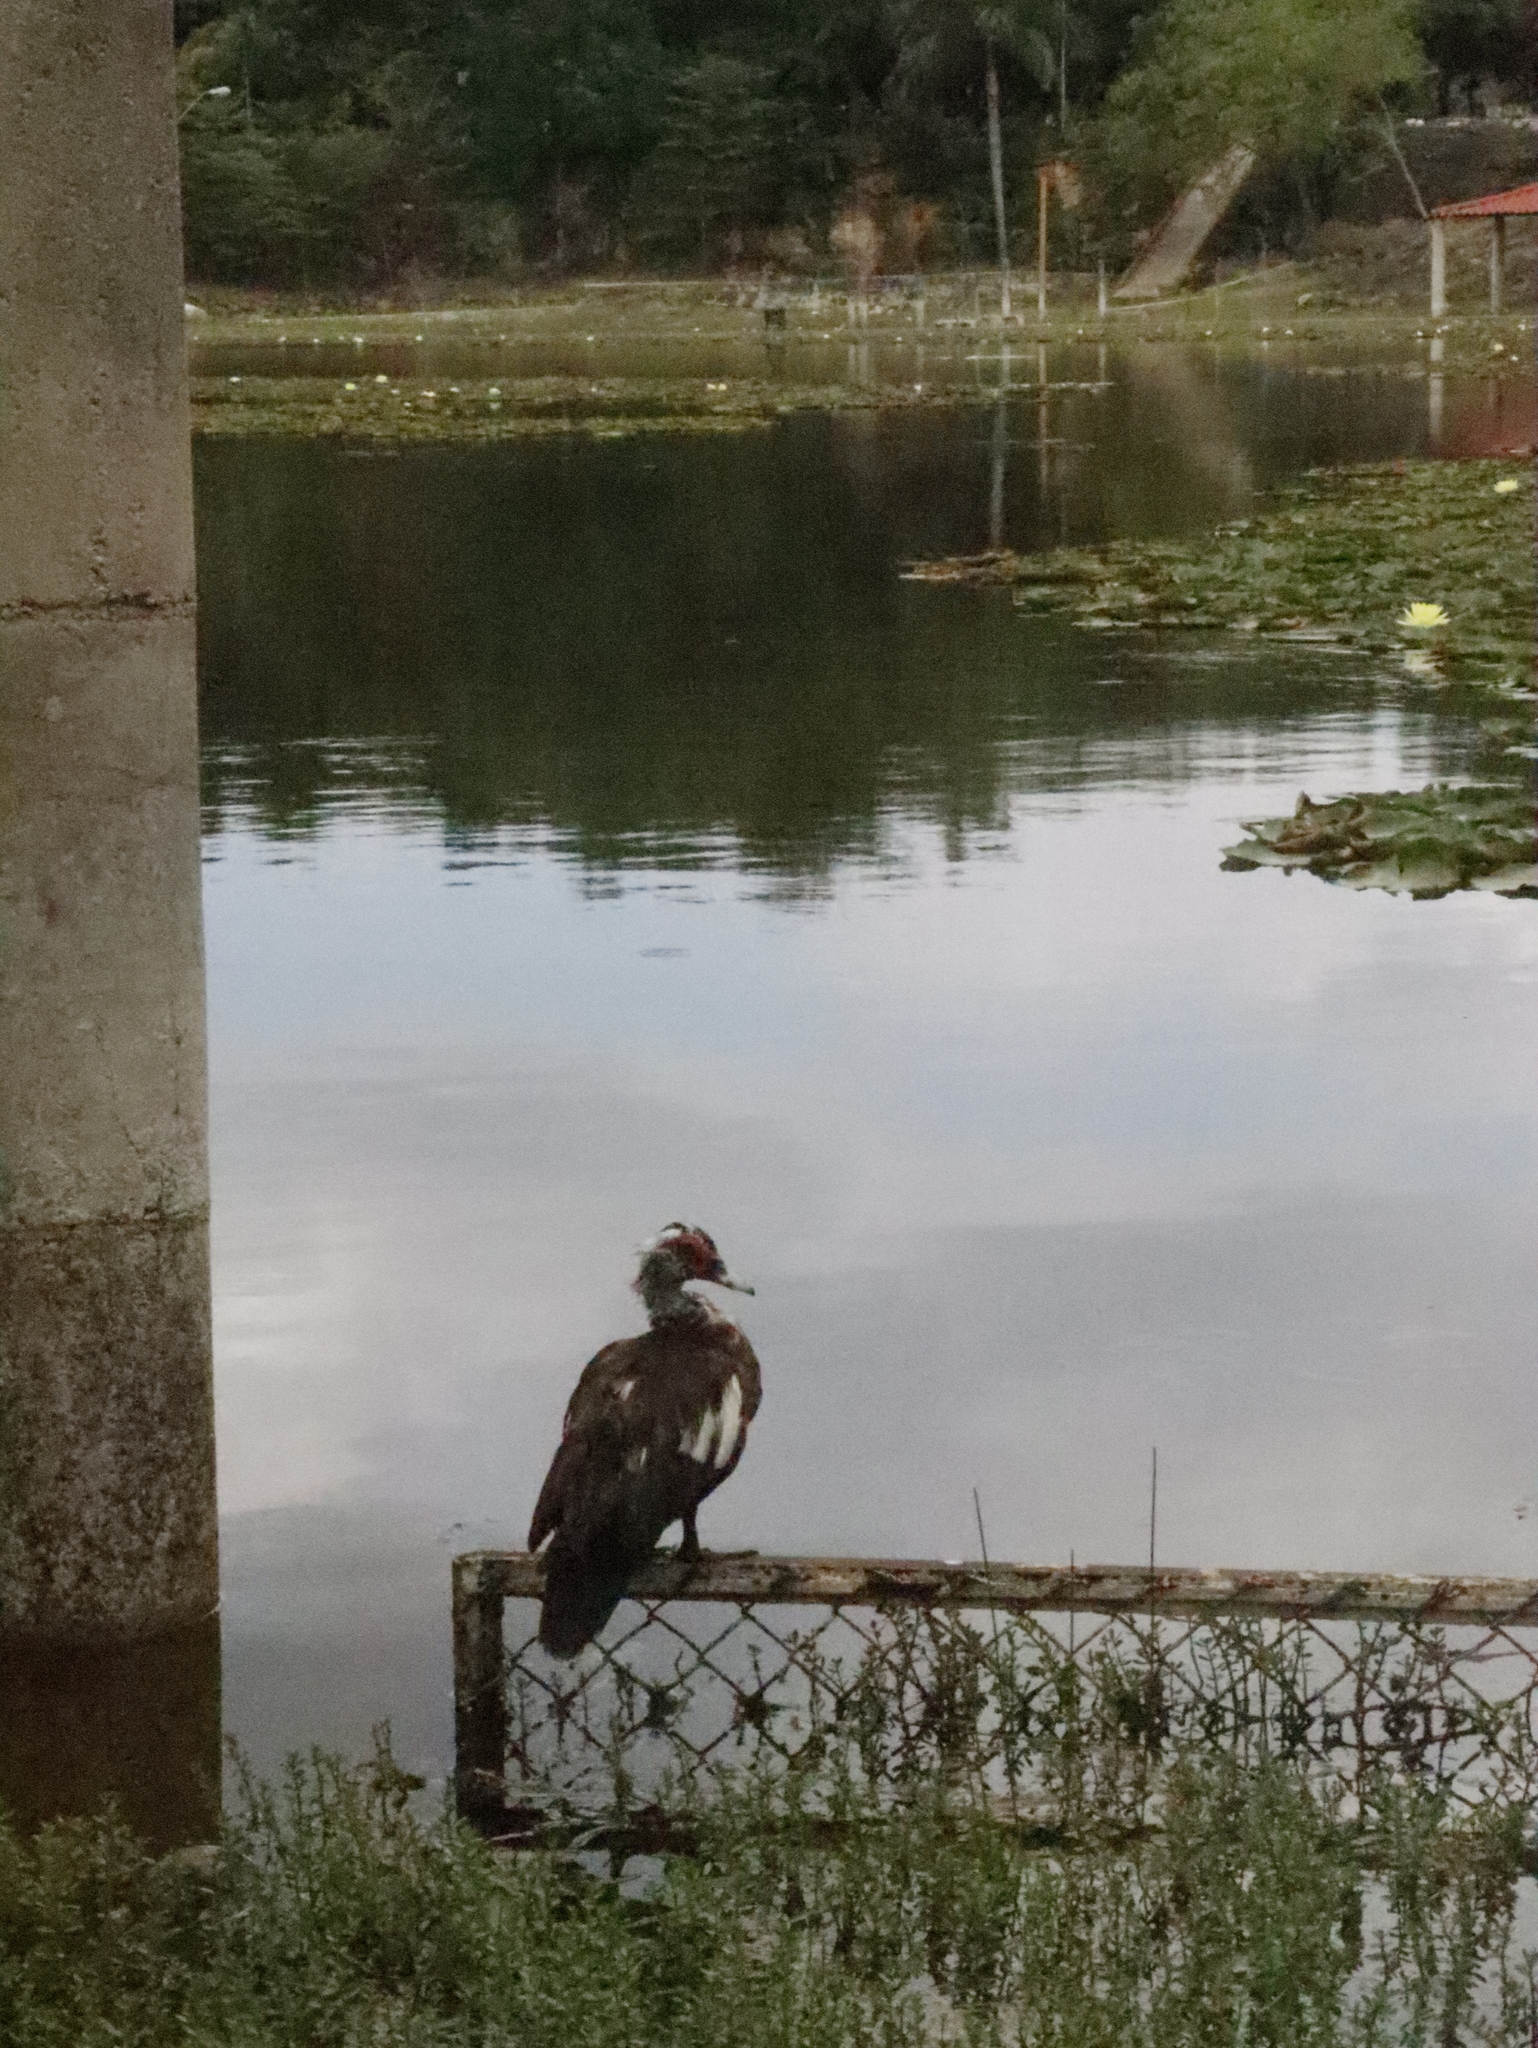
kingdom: Animalia
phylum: Chordata
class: Aves
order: Anseriformes
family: Anatidae
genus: Cairina
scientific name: Cairina moschata
